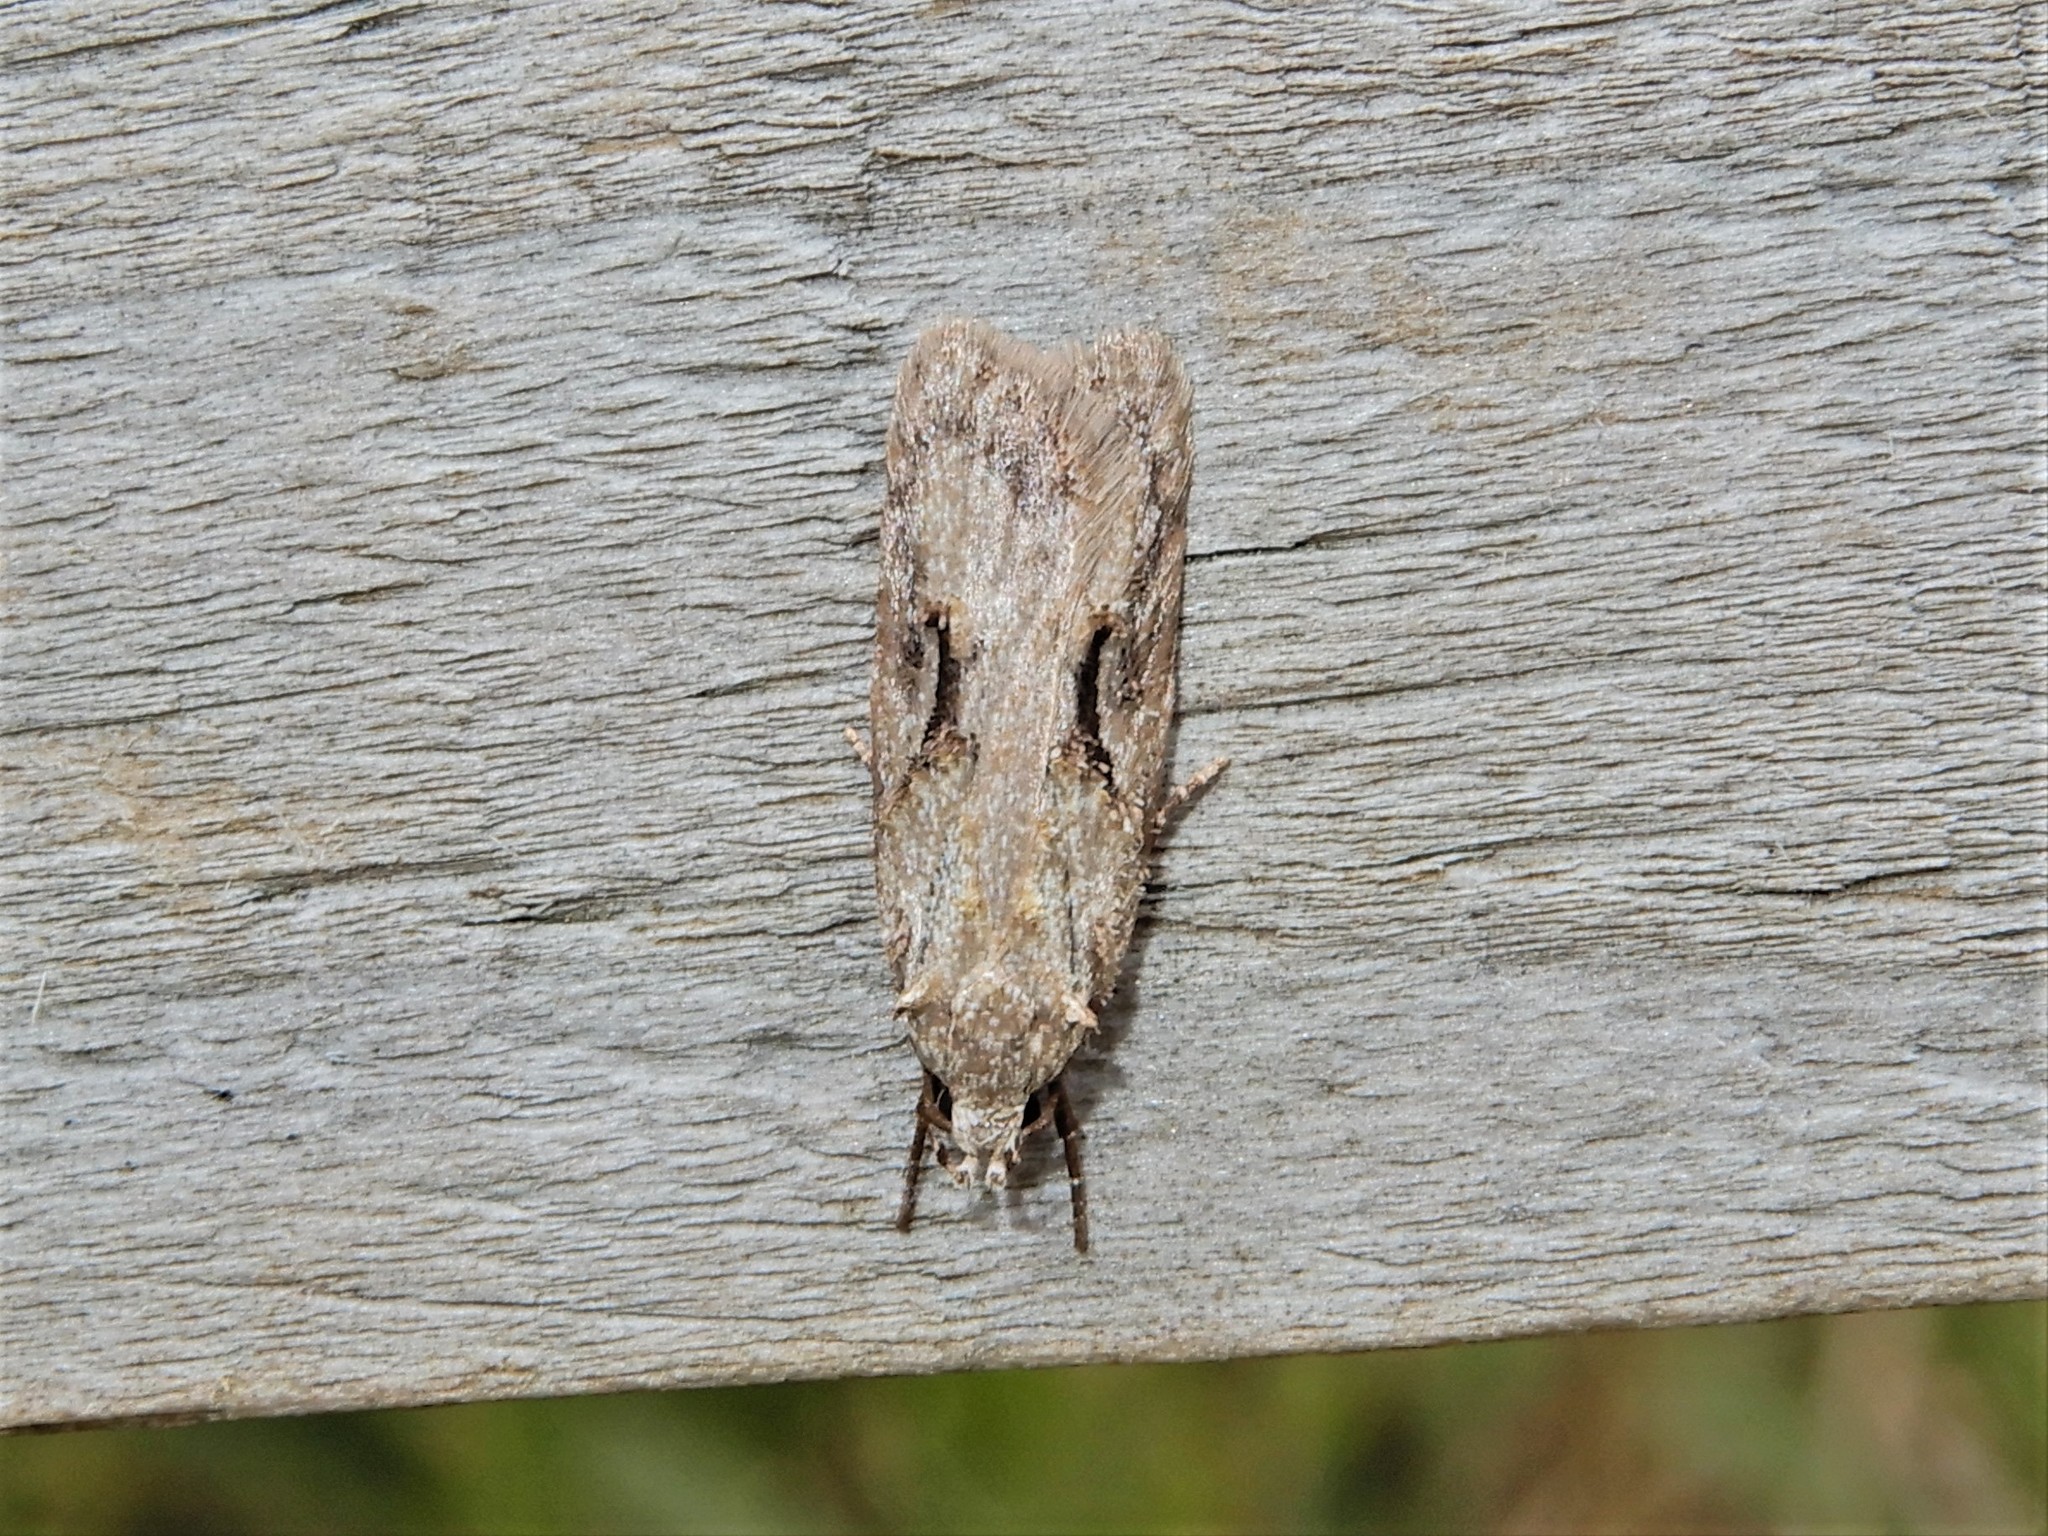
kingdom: Animalia
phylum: Arthropoda
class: Insecta
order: Lepidoptera
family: Oecophoridae
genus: Izatha
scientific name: Izatha mesoschista
